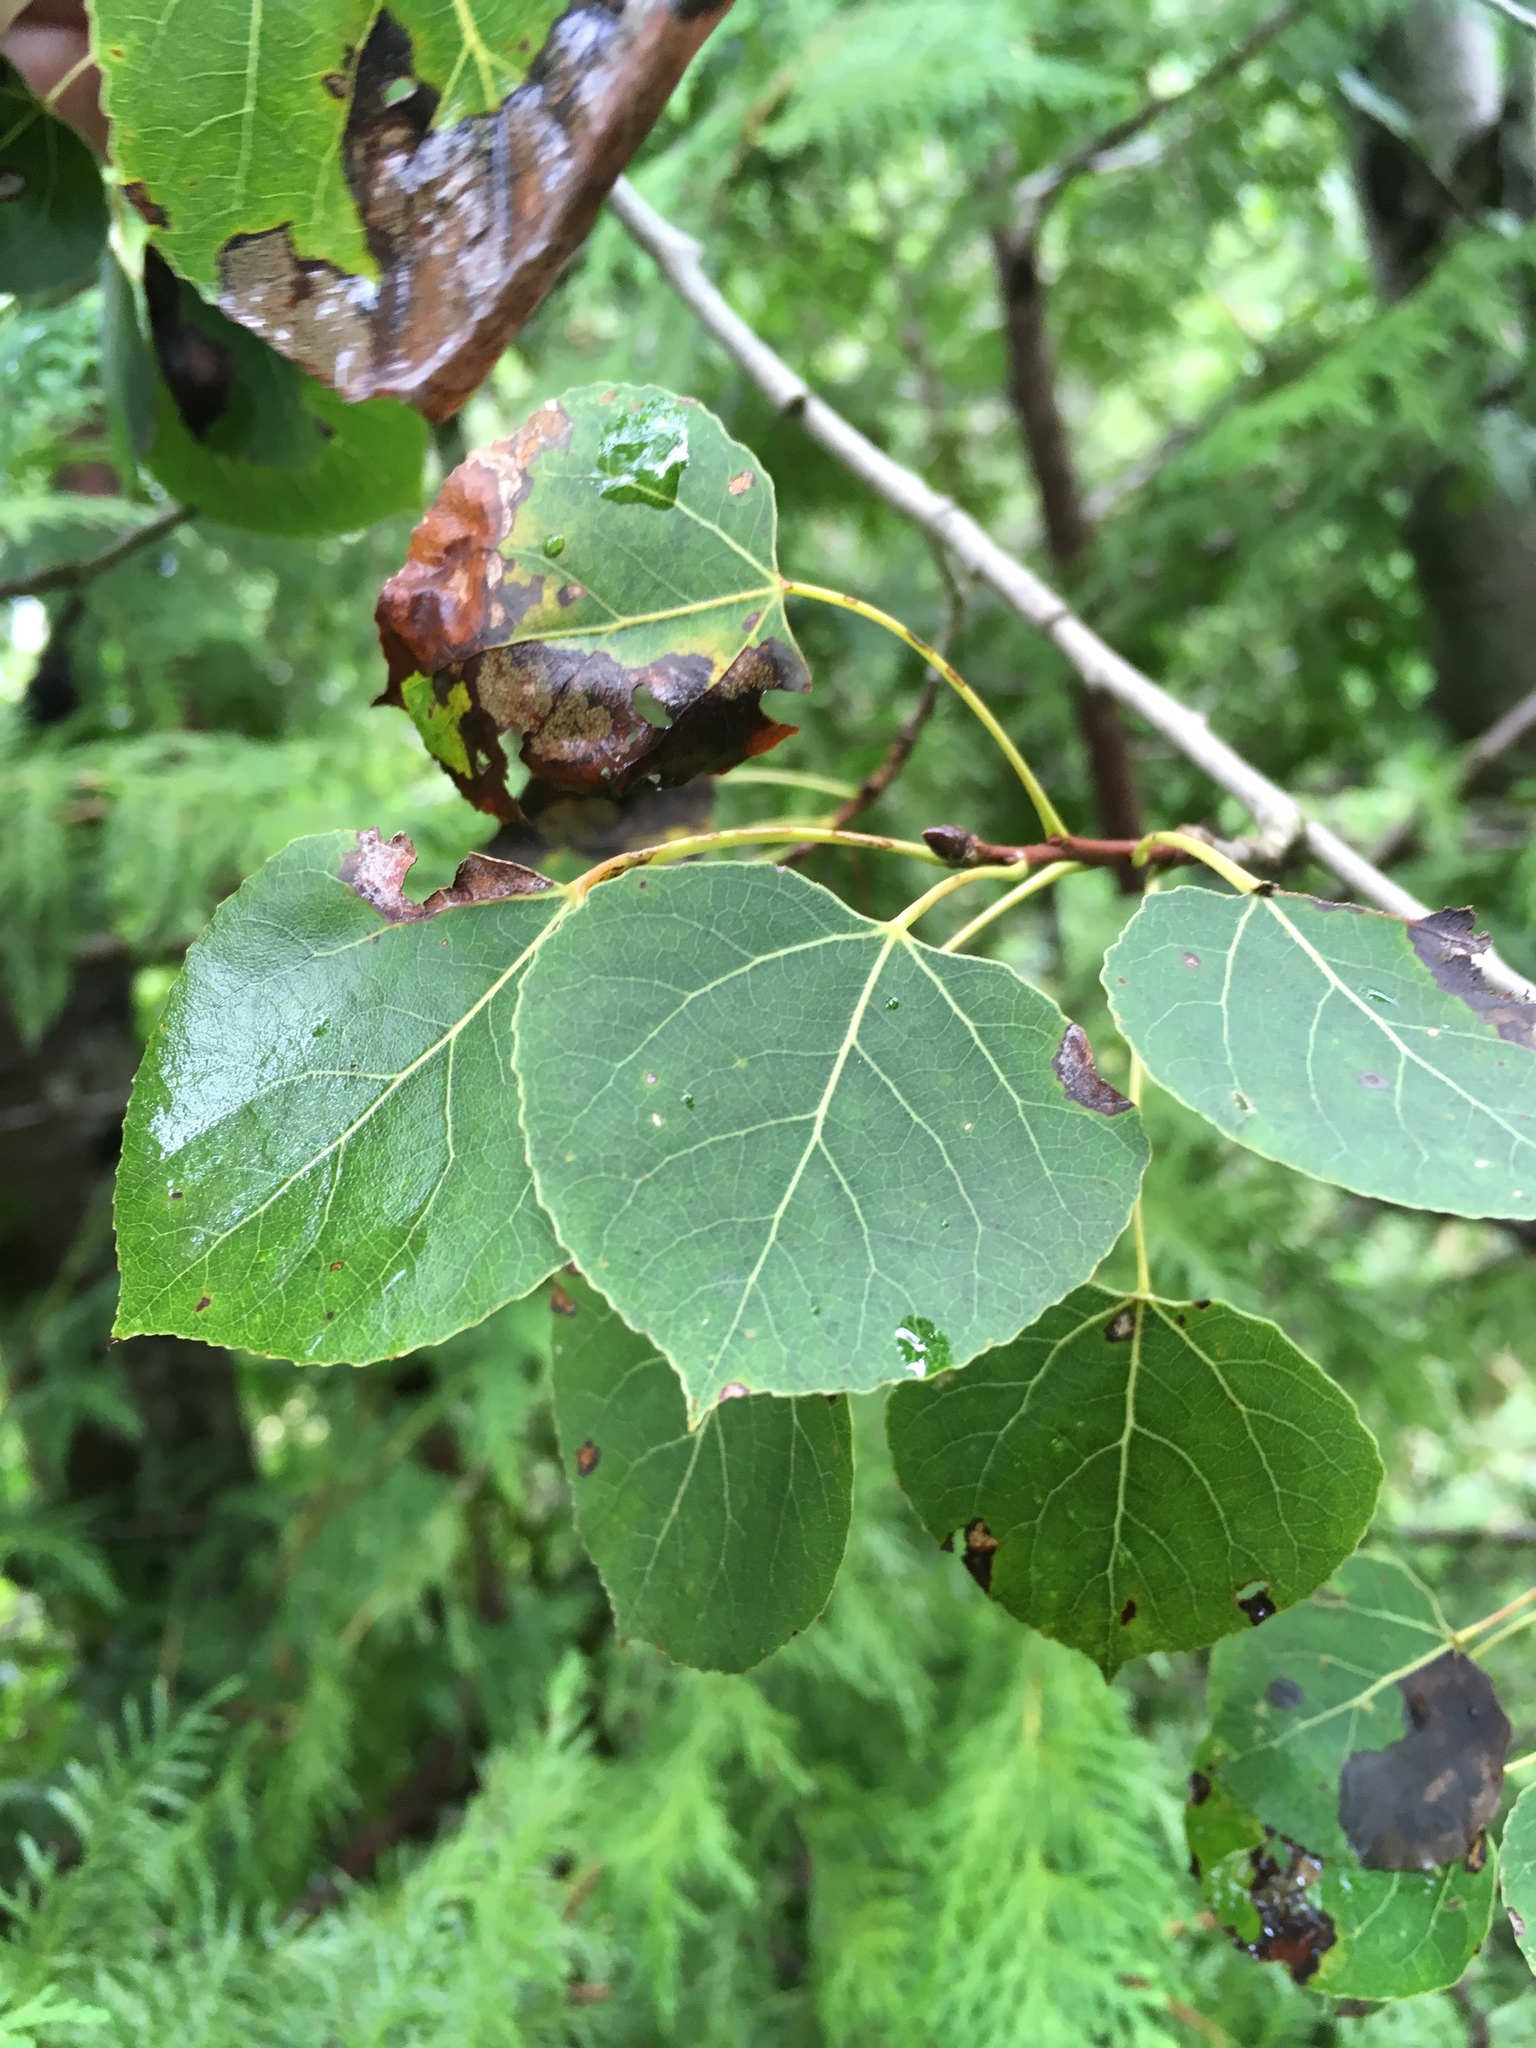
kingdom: Plantae
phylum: Tracheophyta
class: Magnoliopsida
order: Malpighiales
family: Salicaceae
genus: Populus
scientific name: Populus tremuloides
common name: Quaking aspen
